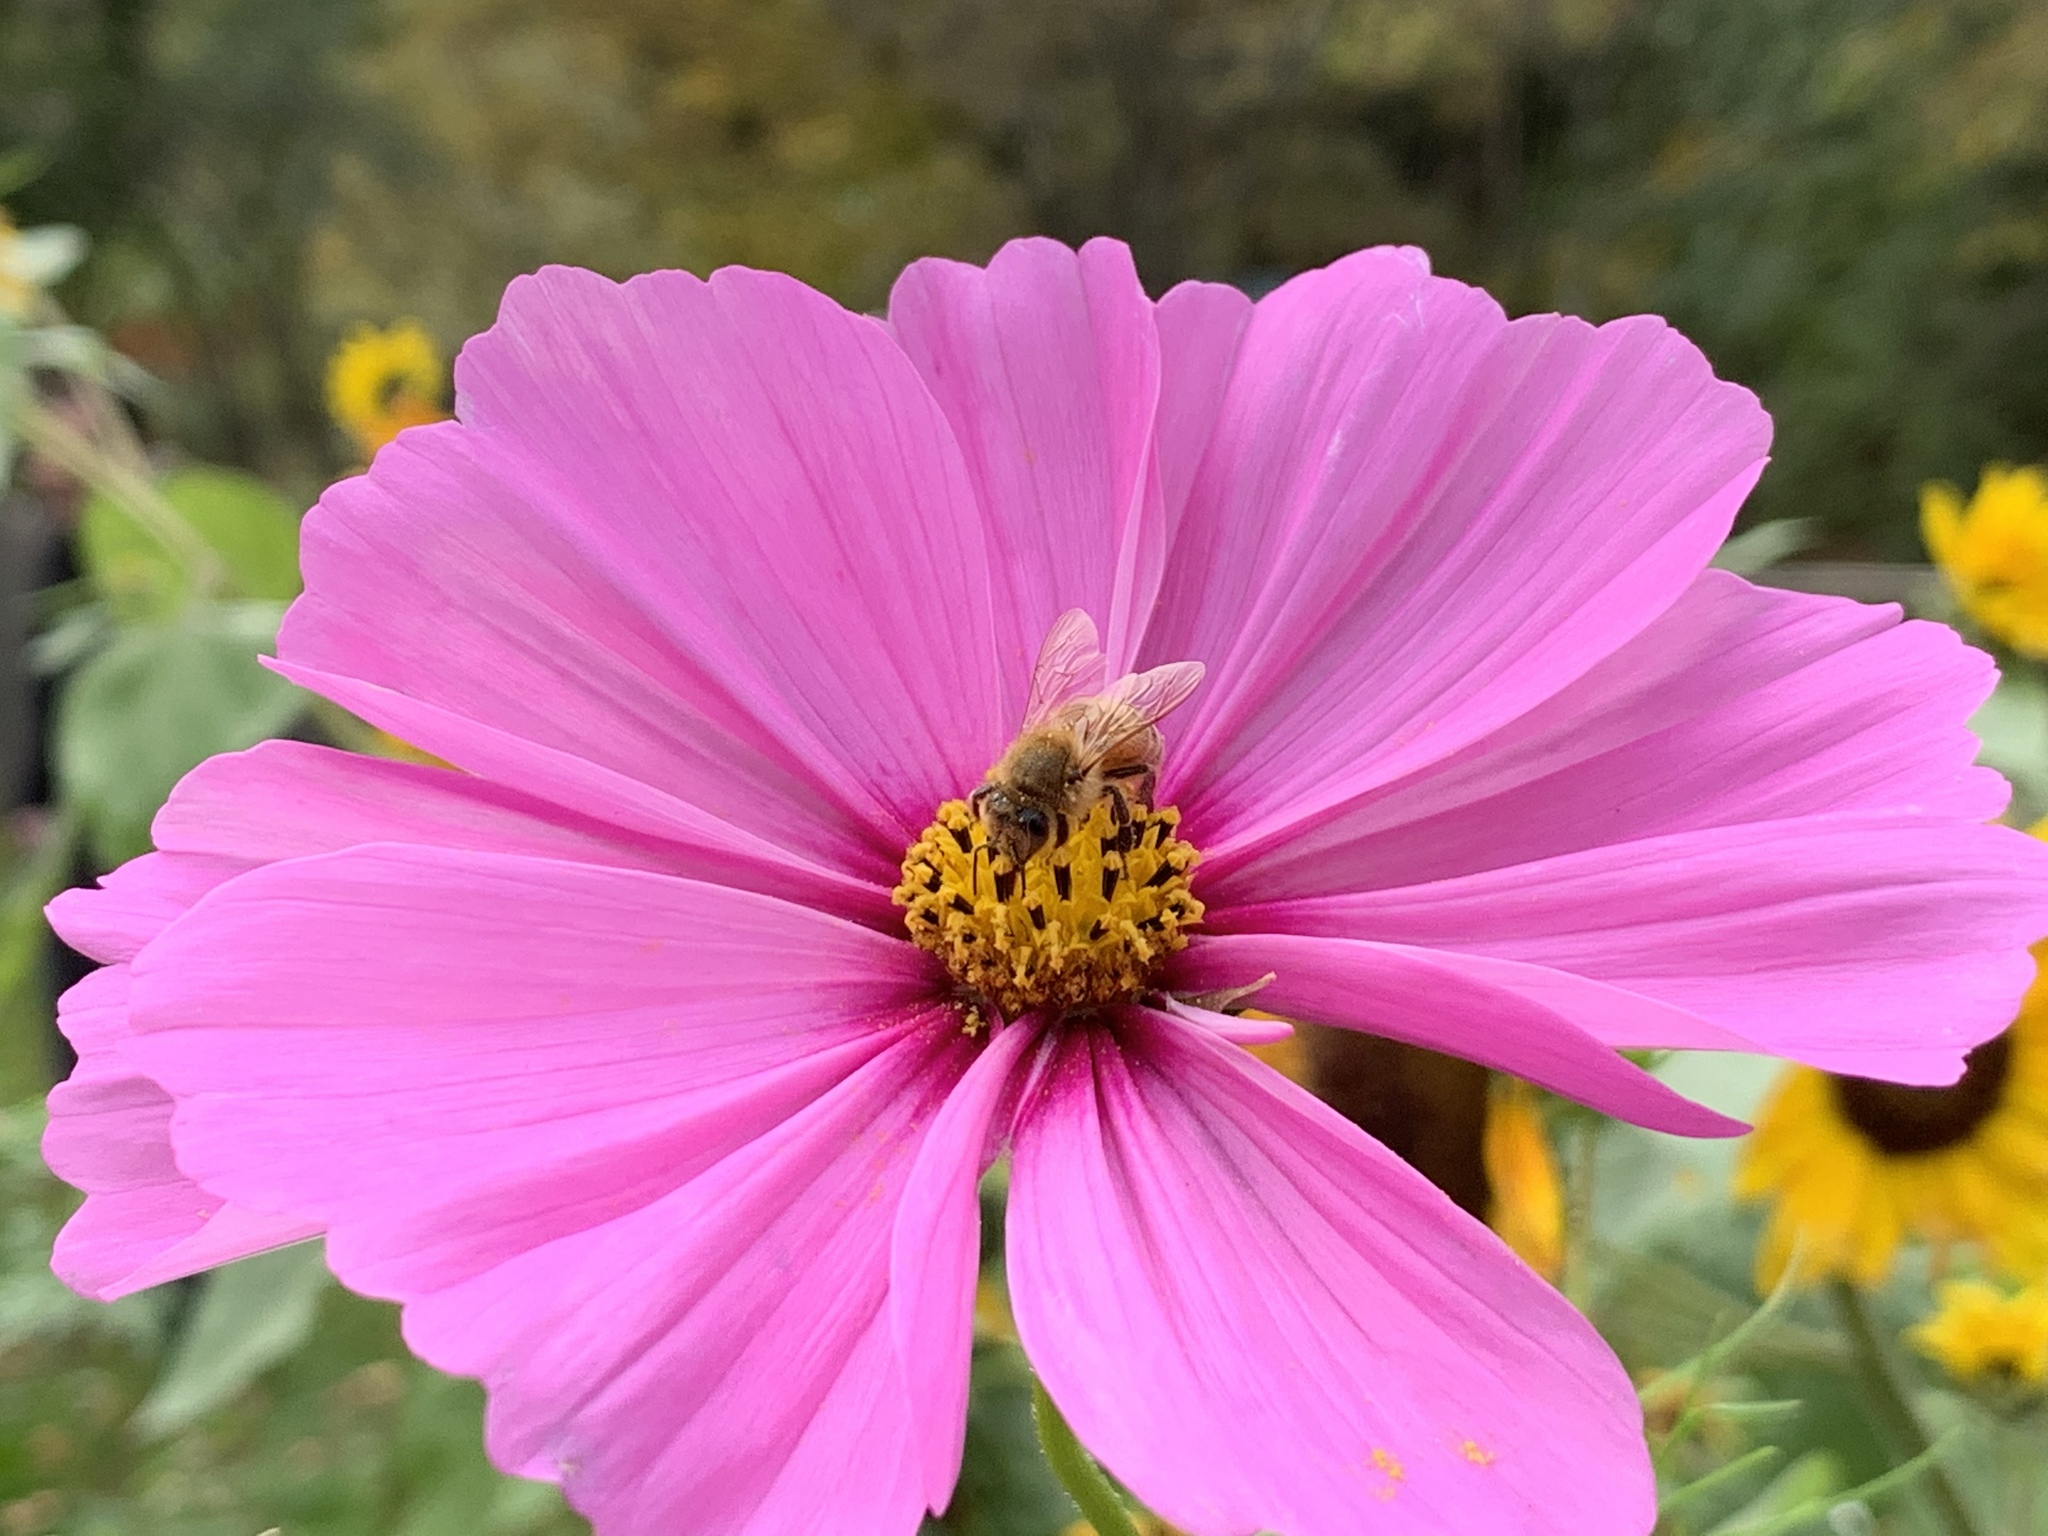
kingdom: Animalia
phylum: Arthropoda
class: Insecta
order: Hymenoptera
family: Apidae
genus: Apis
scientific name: Apis mellifera
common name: Honey bee
